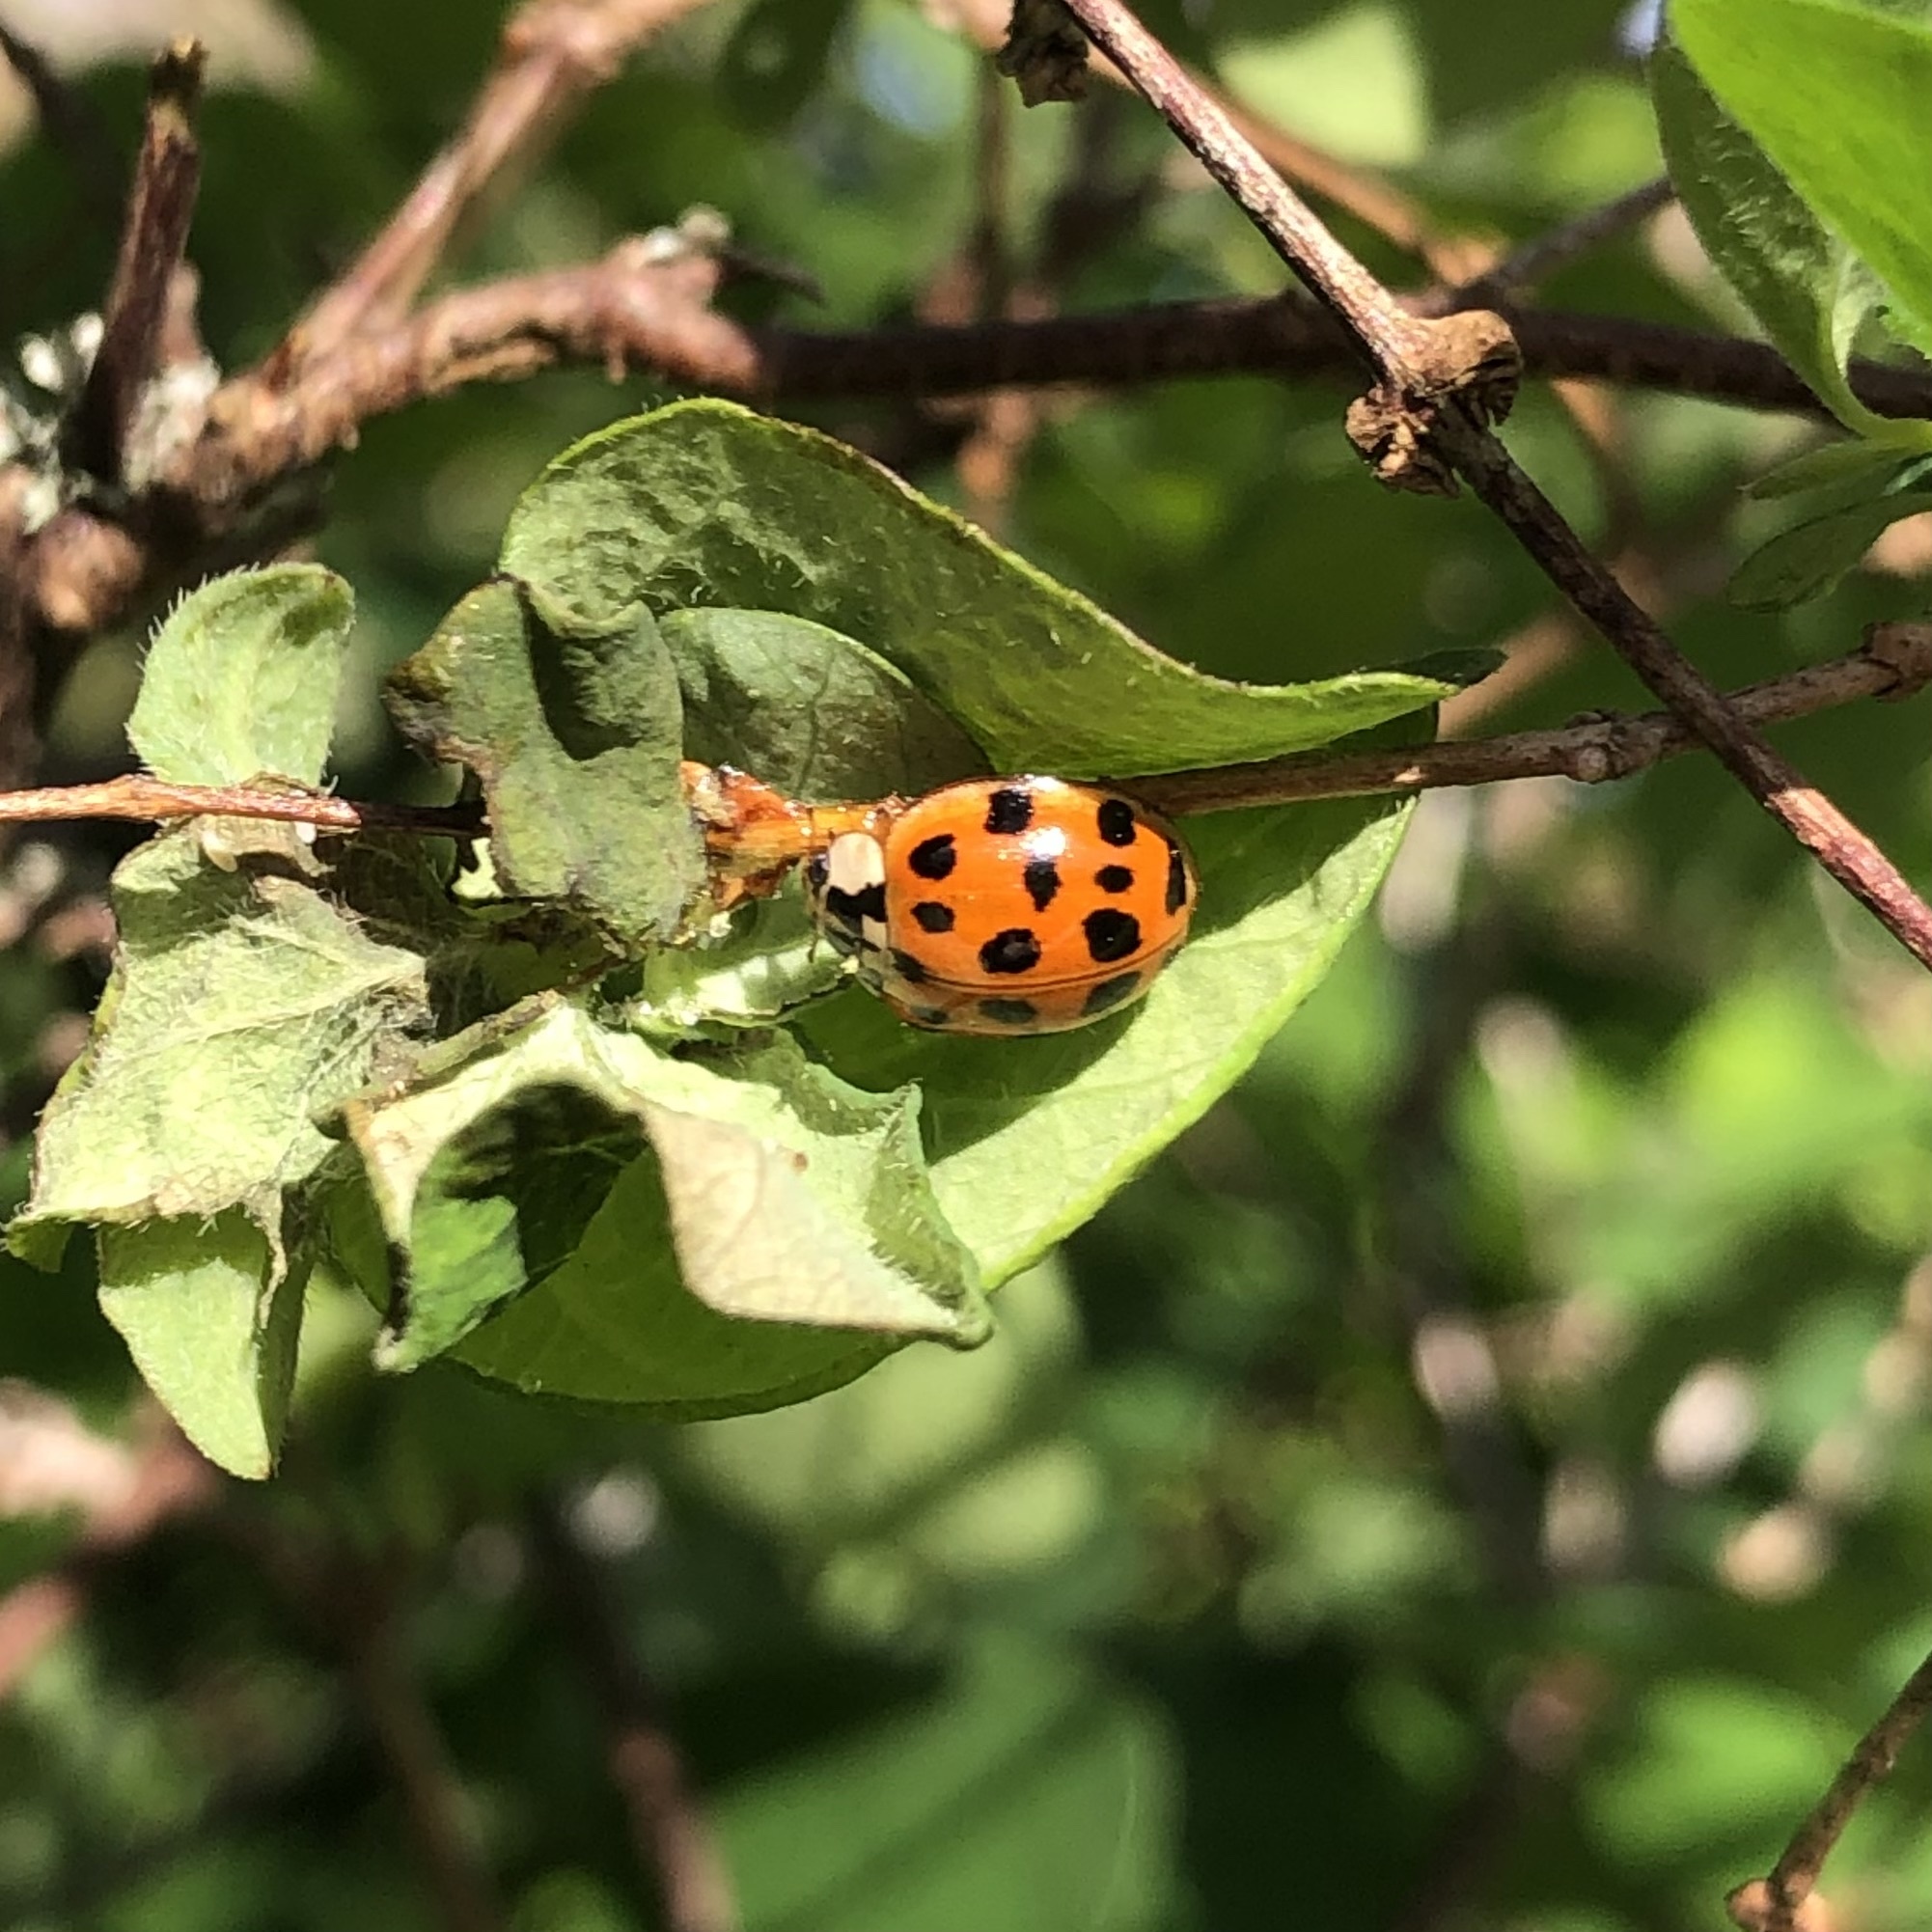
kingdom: Animalia
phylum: Arthropoda
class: Insecta
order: Coleoptera
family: Coccinellidae
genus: Harmonia
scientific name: Harmonia axyridis
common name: Harlequin ladybird
